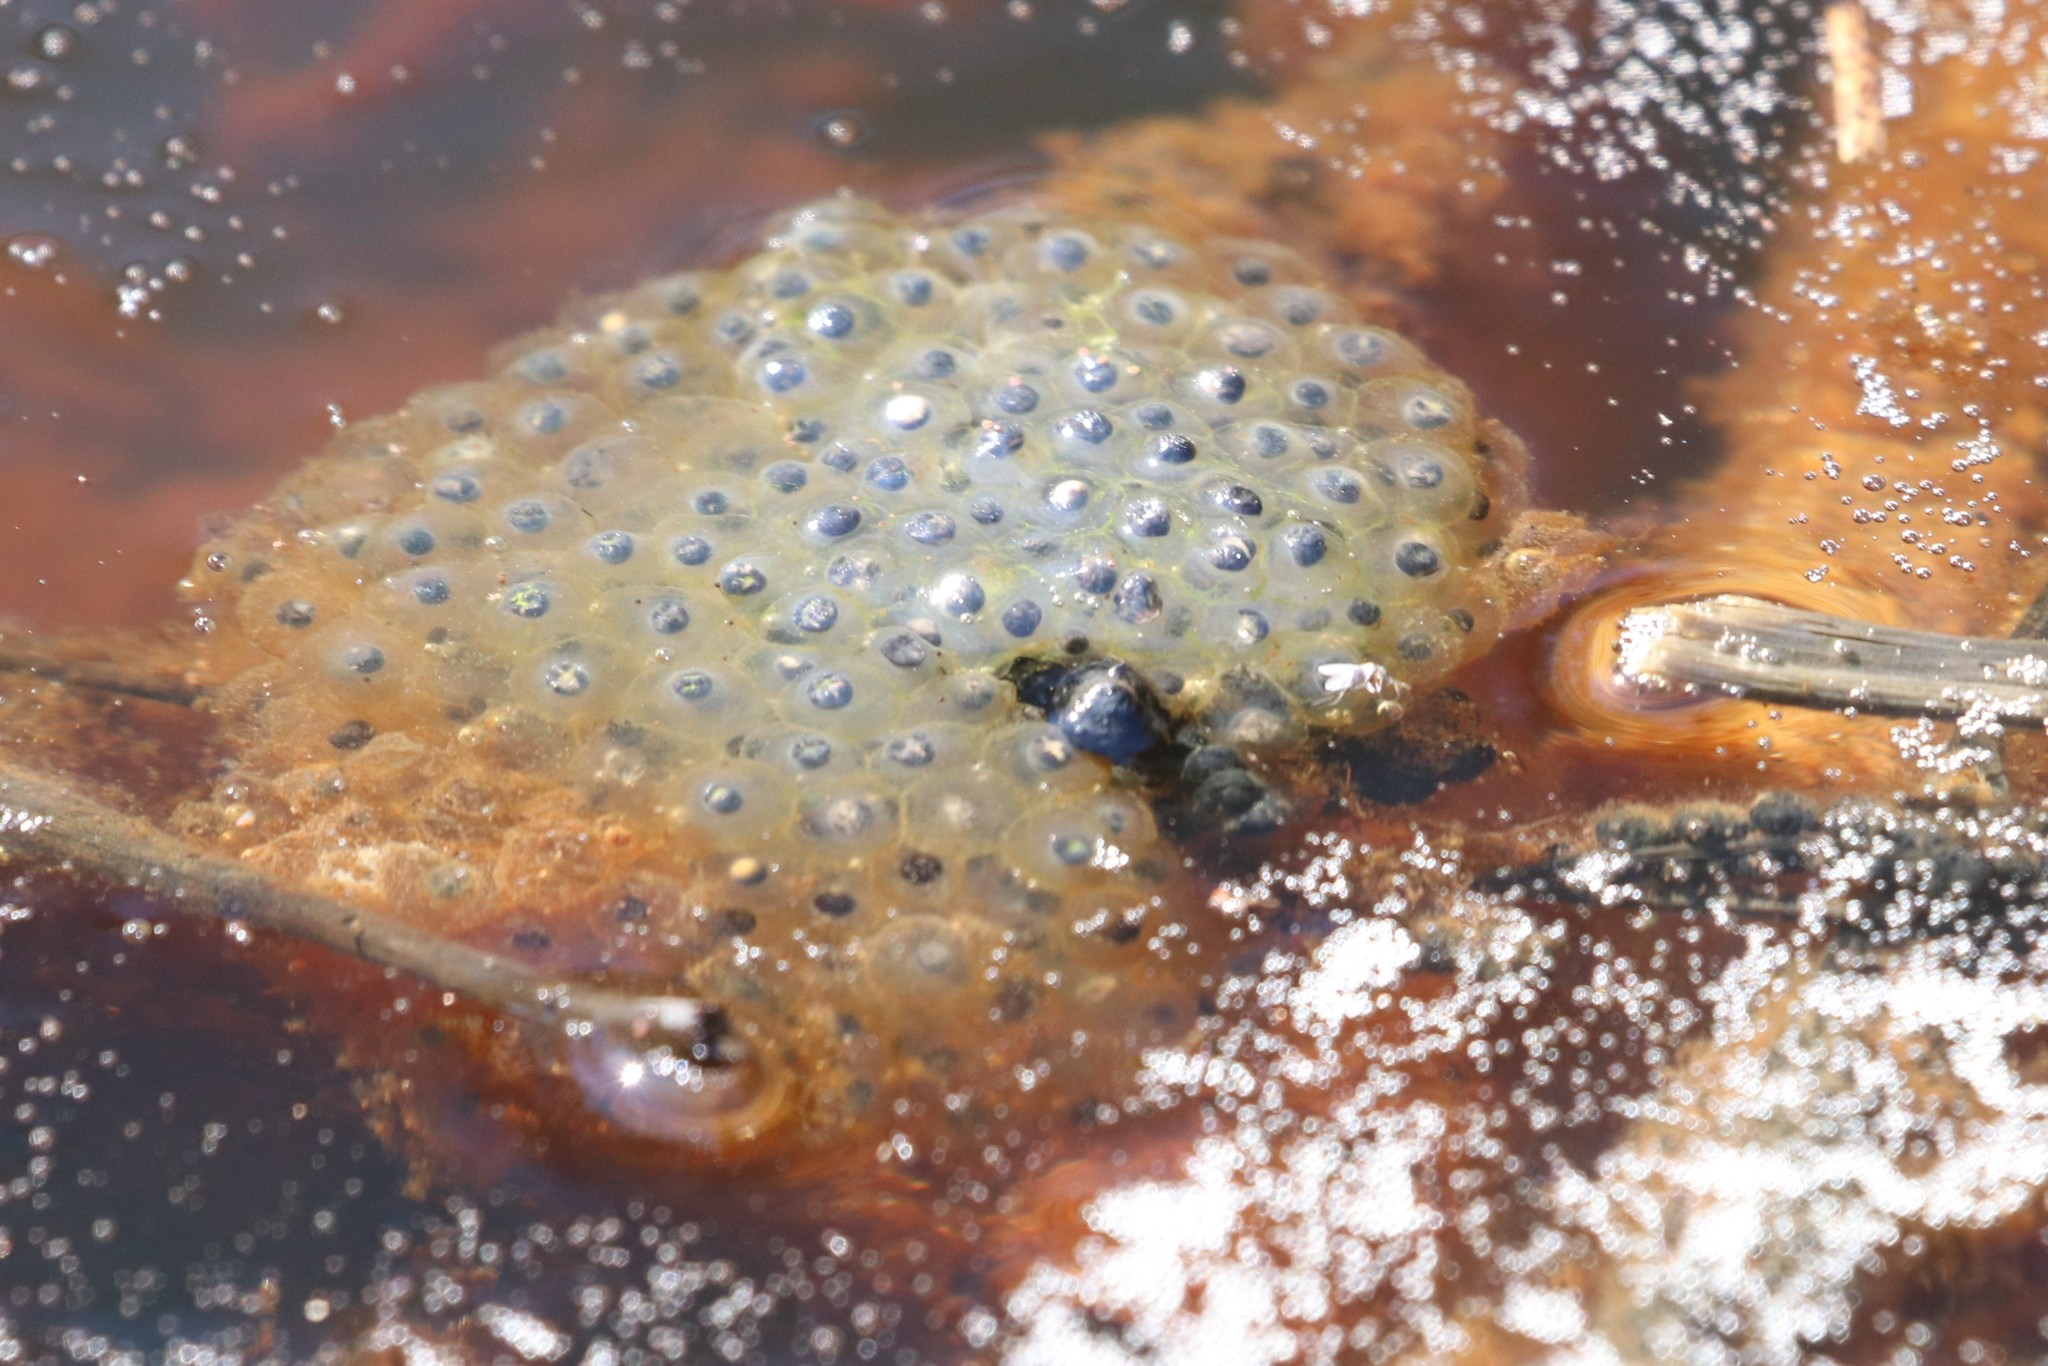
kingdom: Animalia
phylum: Chordata
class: Amphibia
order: Anura
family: Ranidae
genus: Lithobates
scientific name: Lithobates sylvaticus
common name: Wood frog
